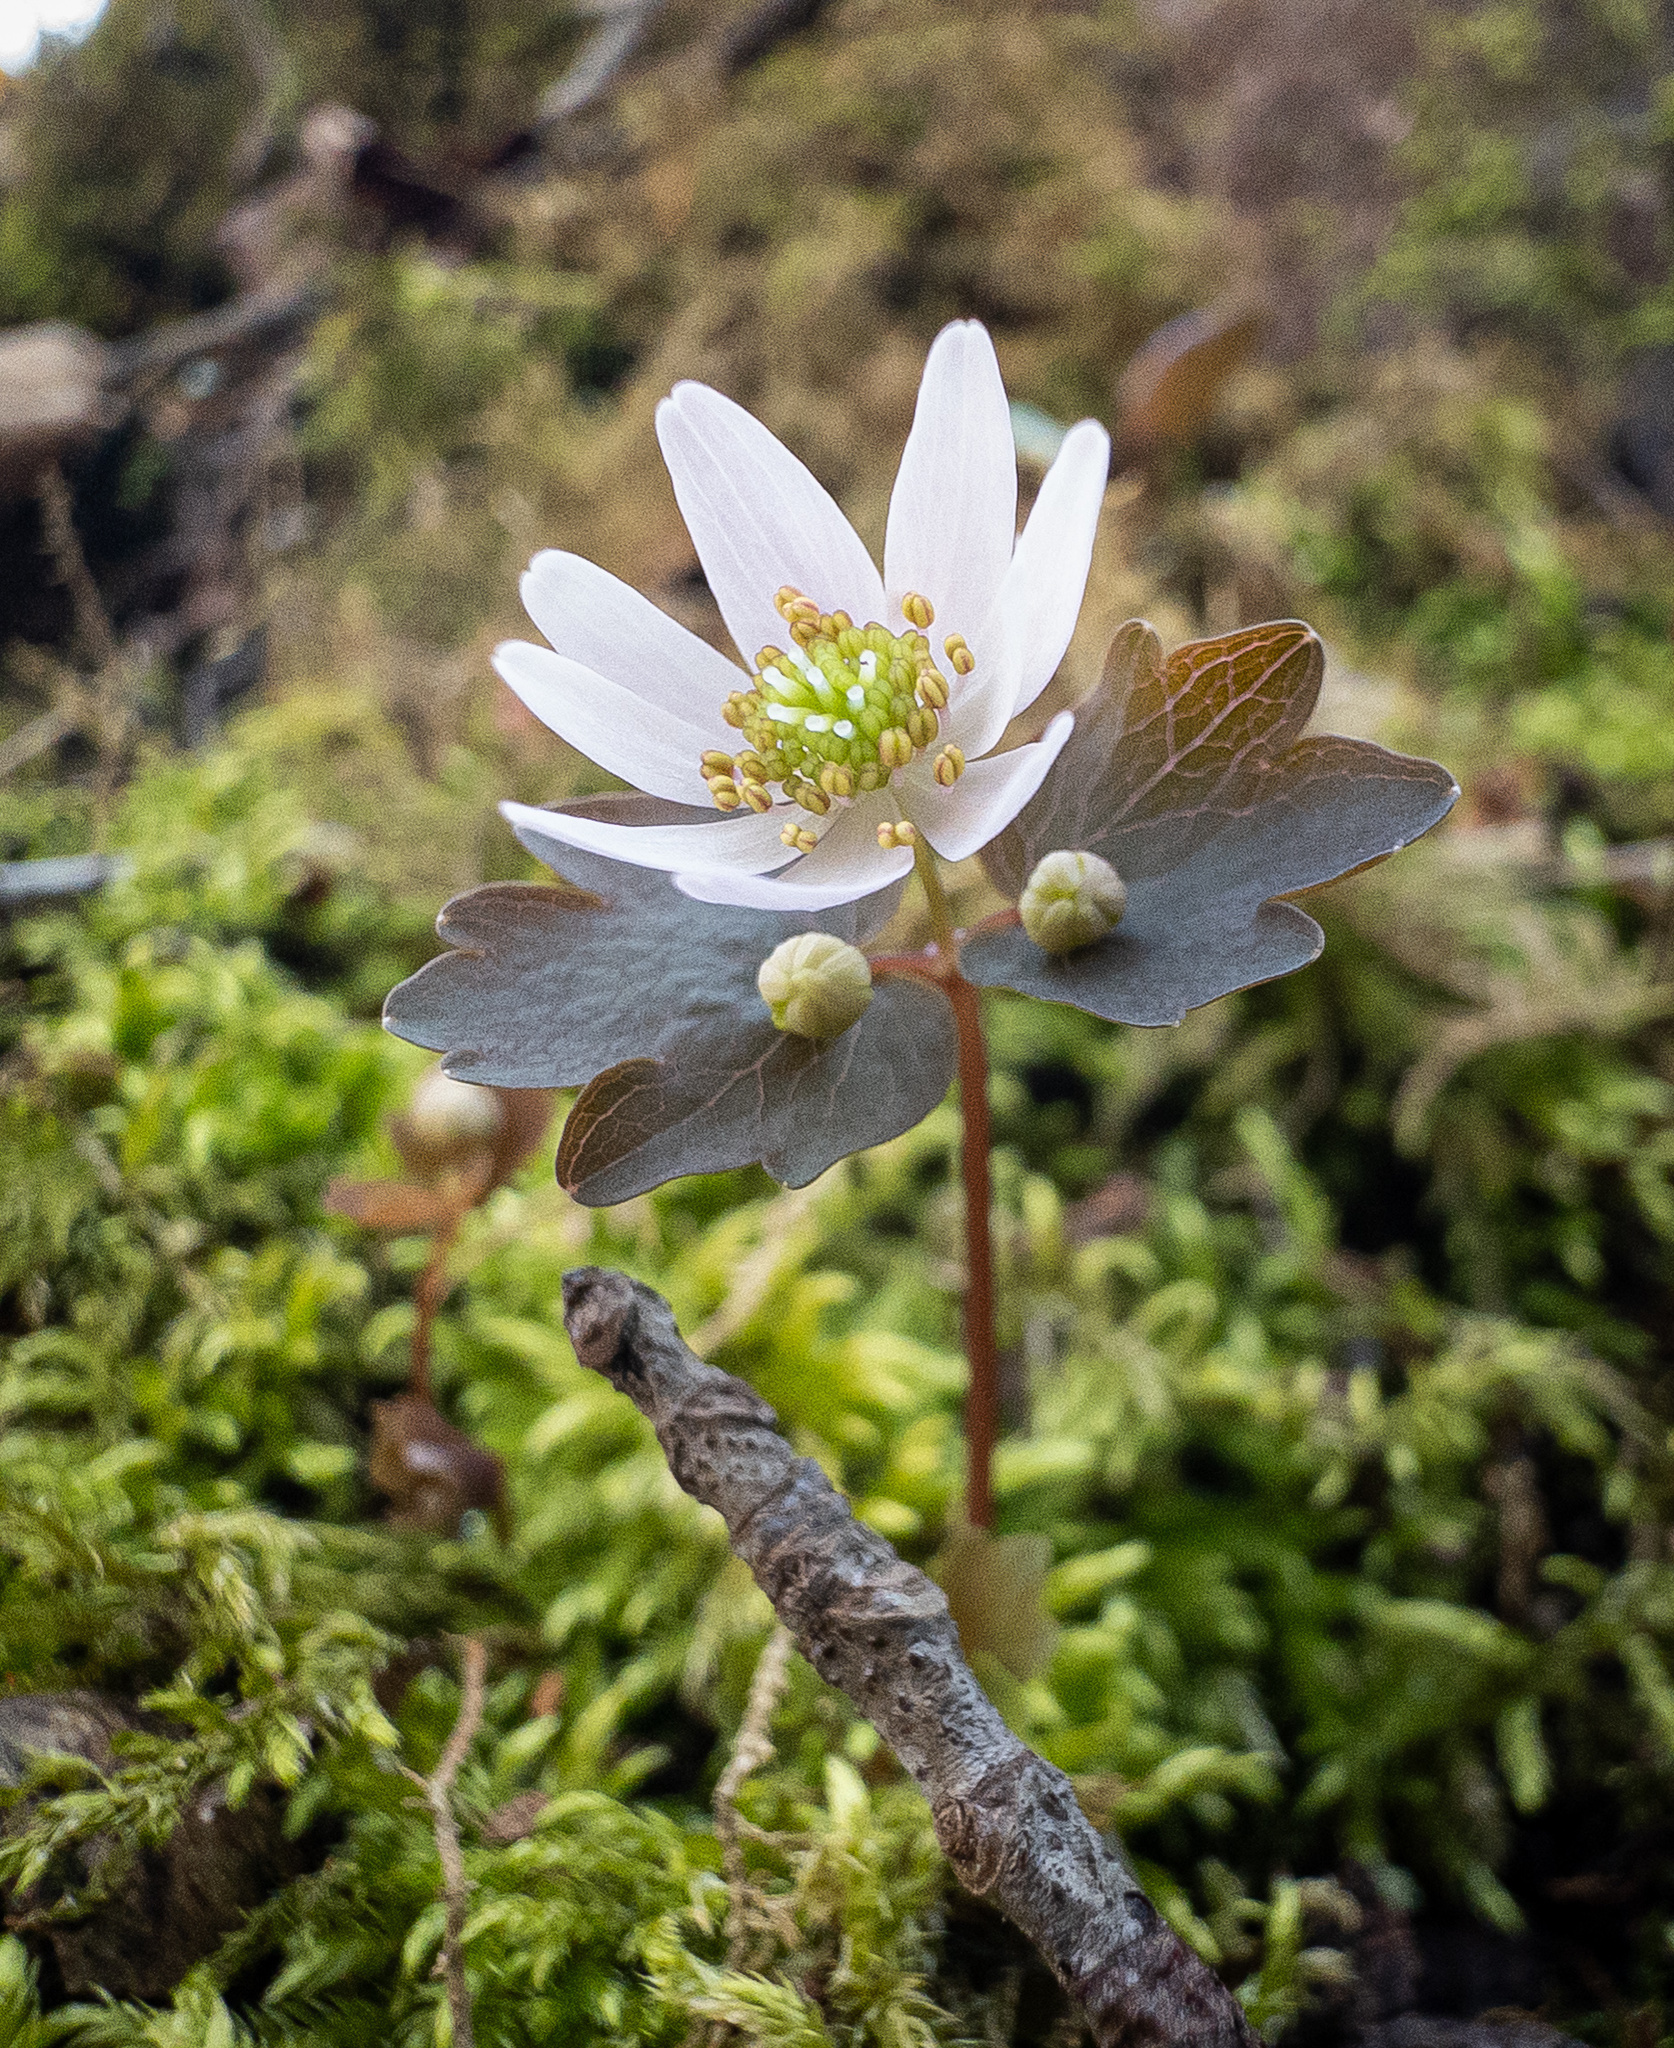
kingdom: Plantae
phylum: Tracheophyta
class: Magnoliopsida
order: Ranunculales
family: Ranunculaceae
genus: Thalictrum
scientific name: Thalictrum thalictroides
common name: Rue-anemone
